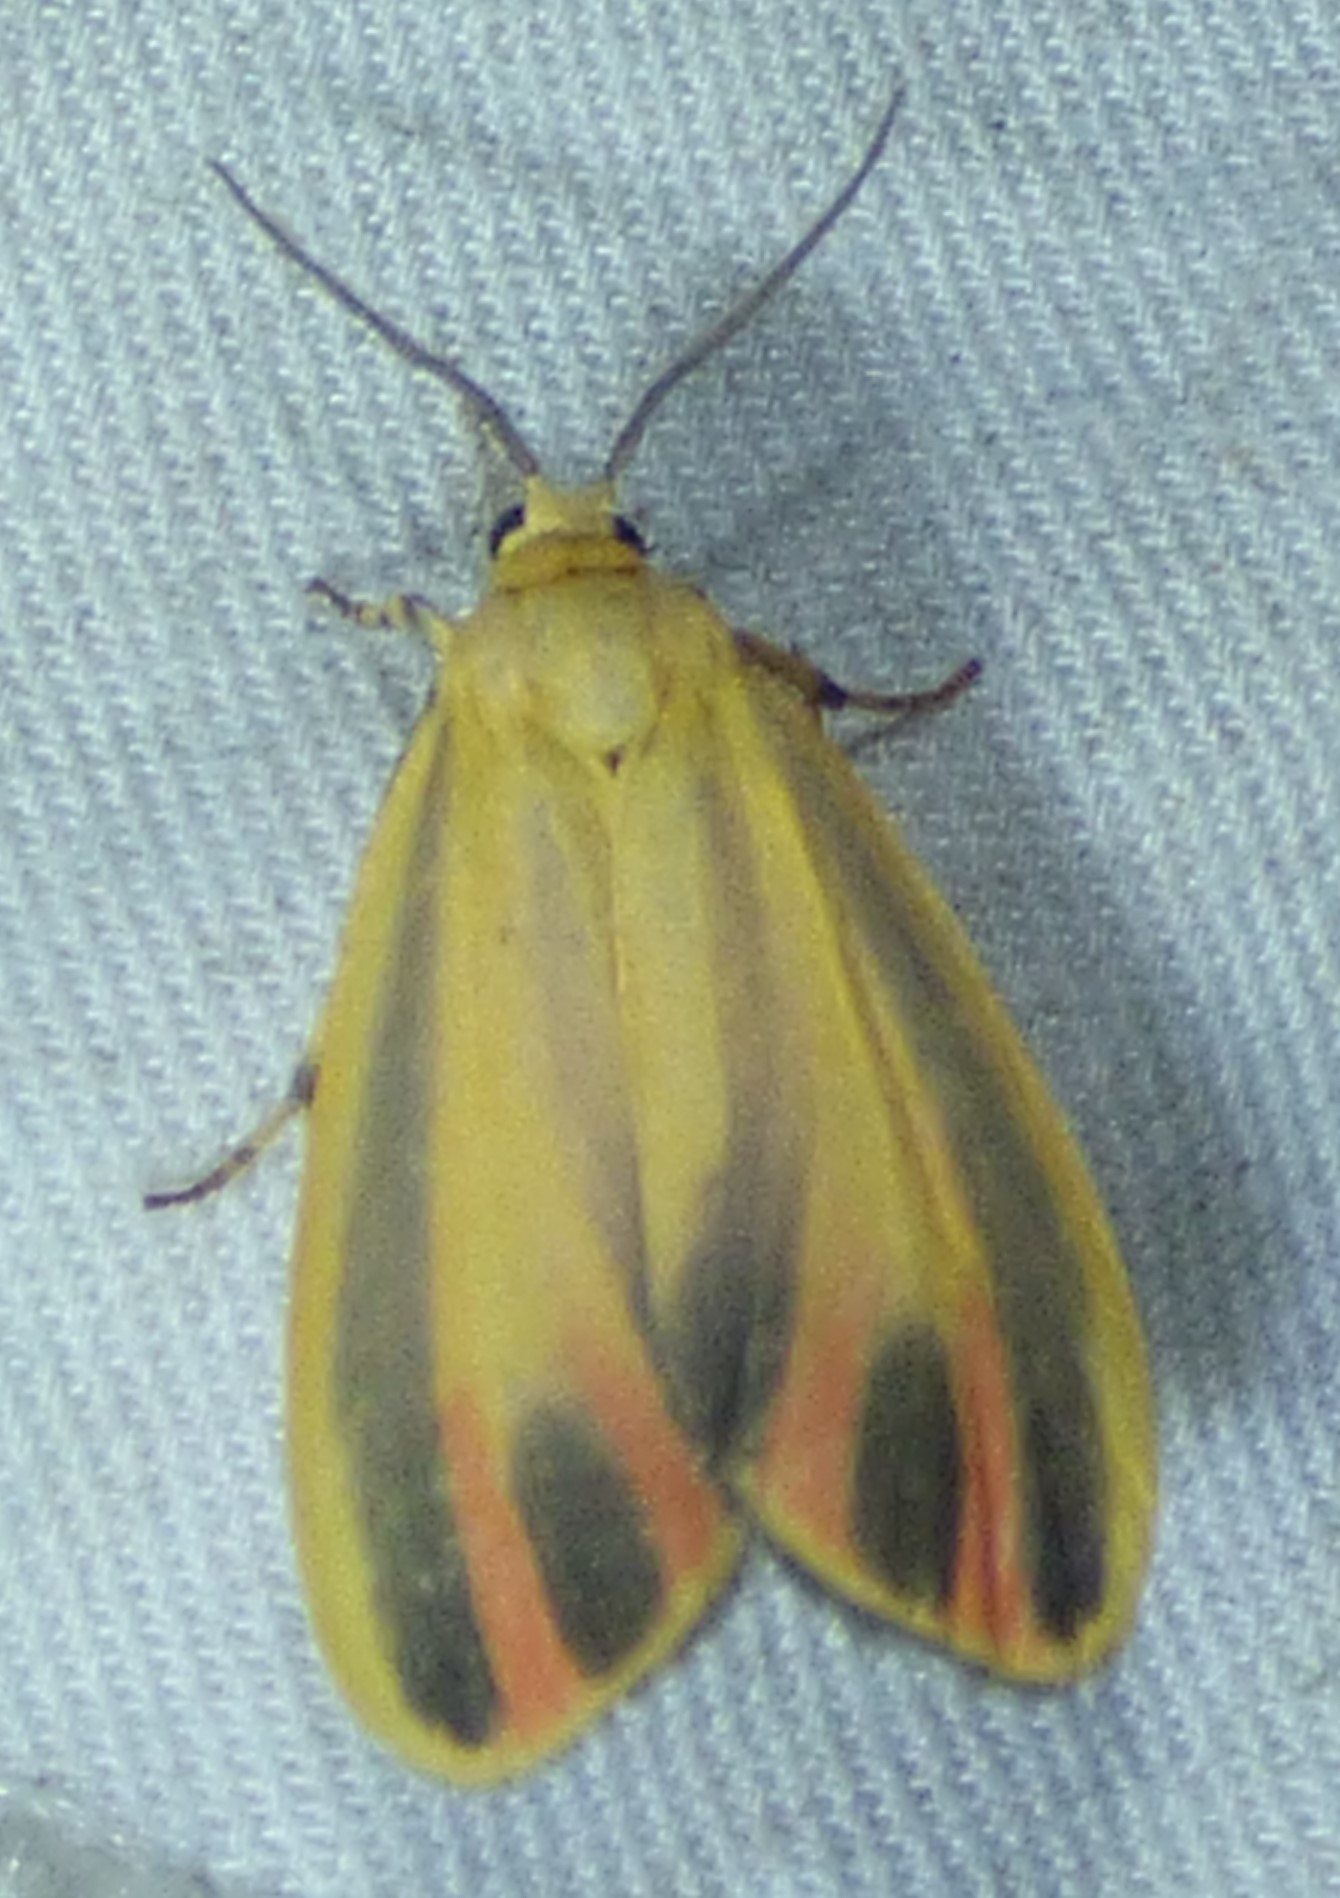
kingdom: Animalia
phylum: Arthropoda
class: Insecta
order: Lepidoptera
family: Erebidae
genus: Hypoprepia
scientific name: Hypoprepia fucosa
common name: Painted lichen moth
